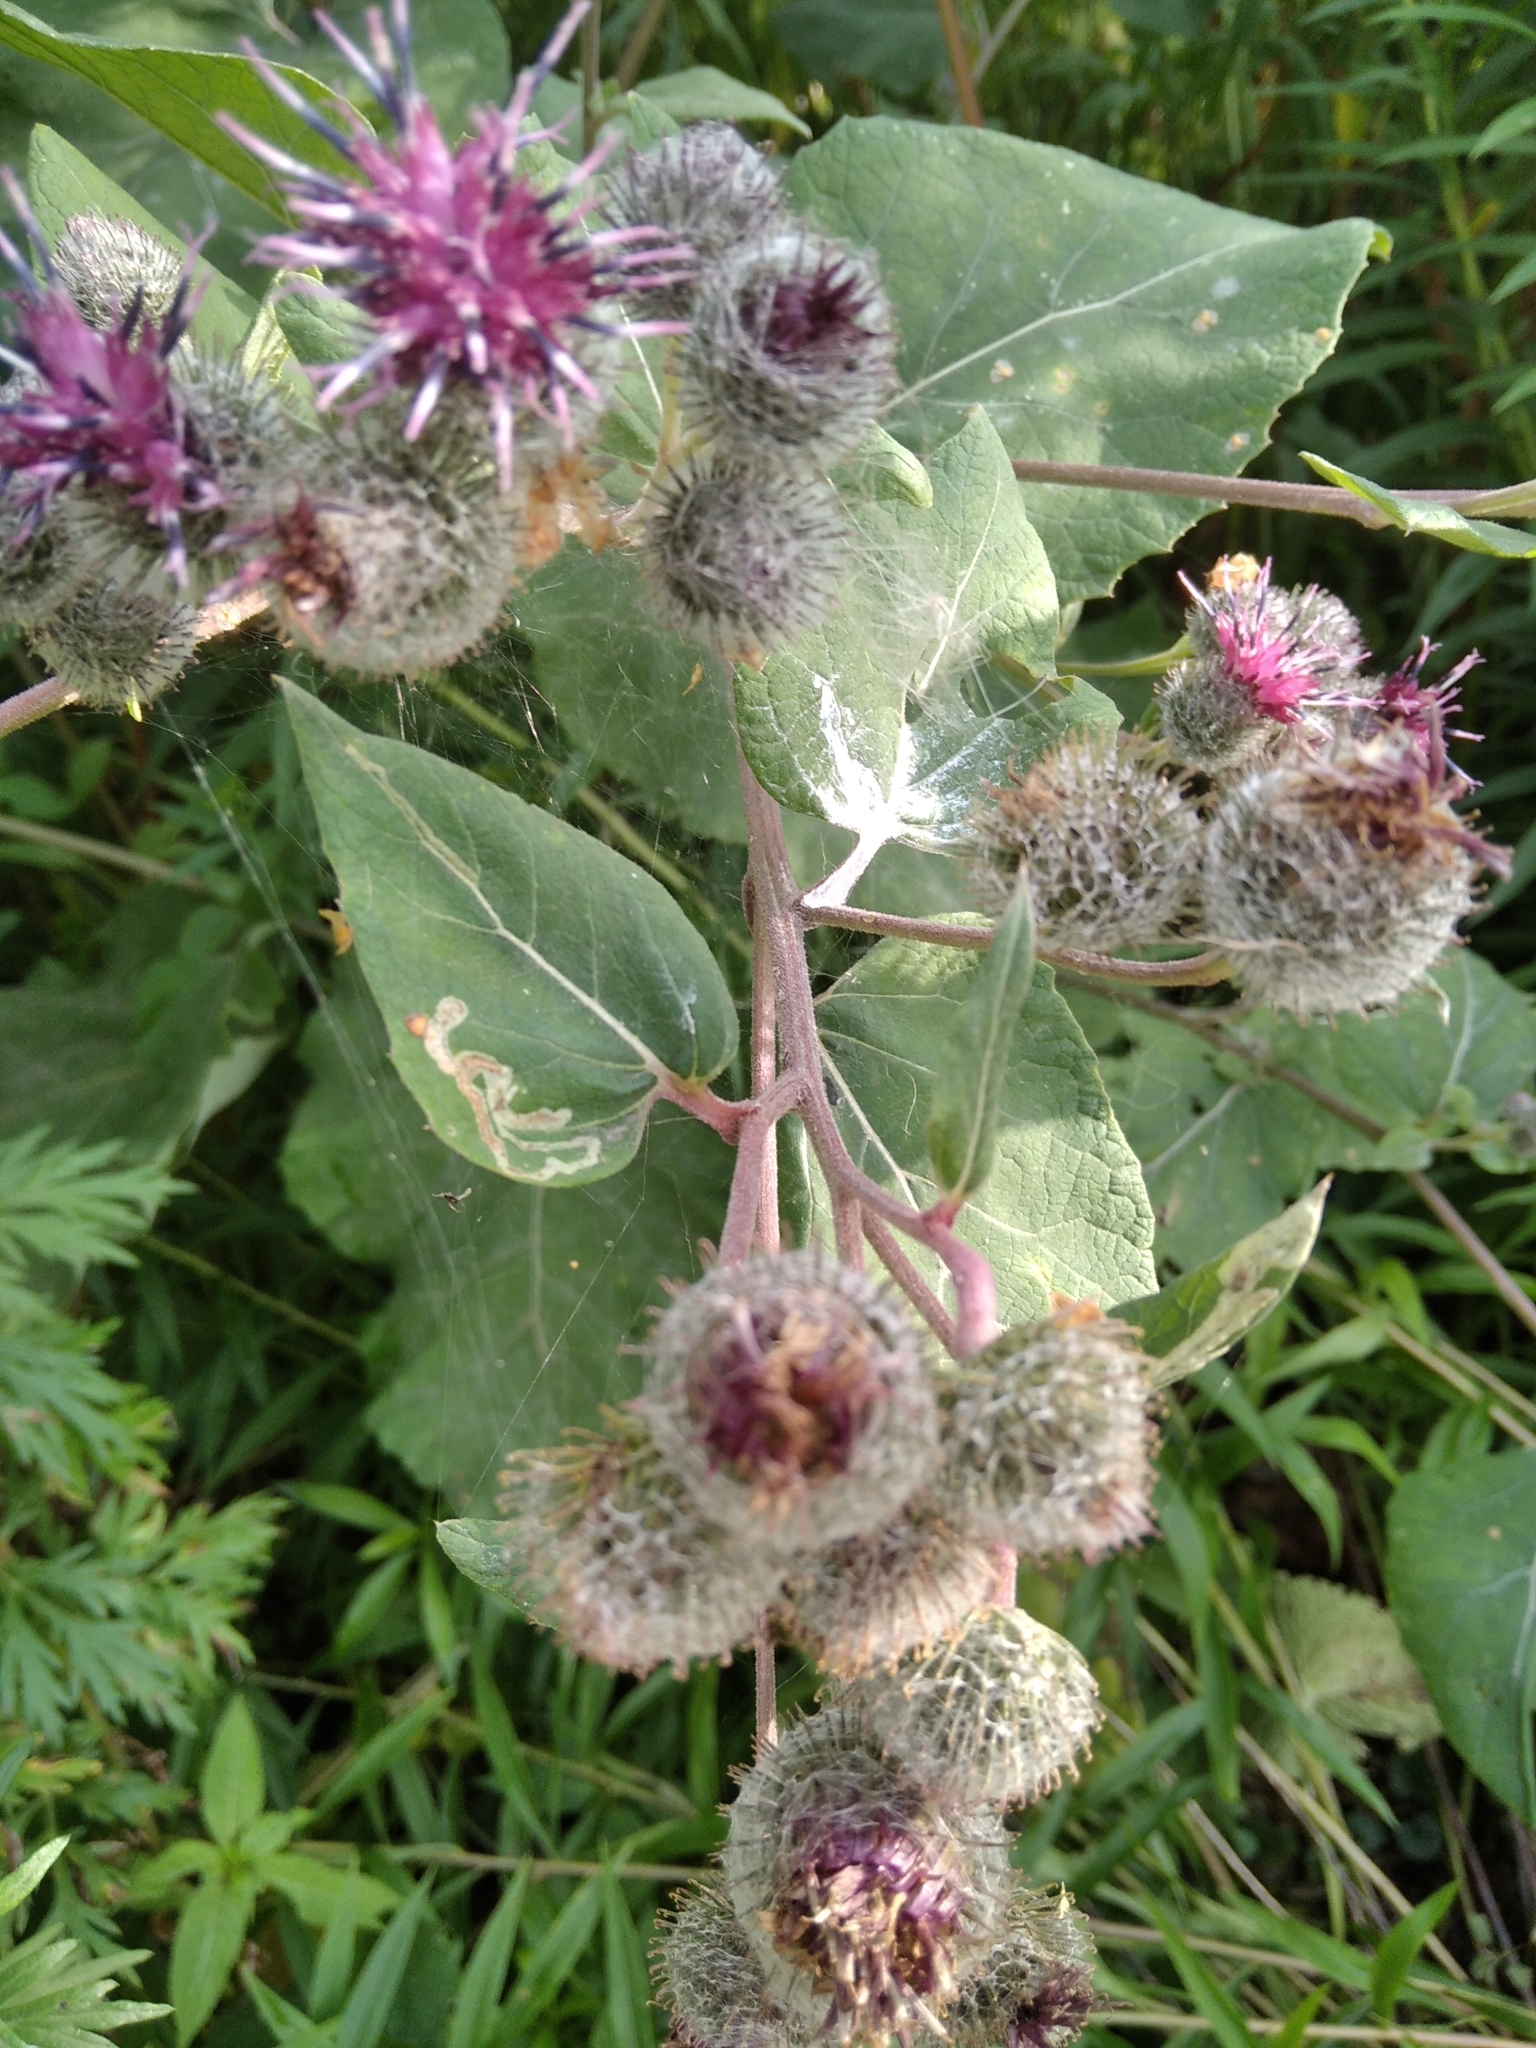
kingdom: Plantae
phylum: Tracheophyta
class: Magnoliopsida
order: Asterales
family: Asteraceae
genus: Arctium
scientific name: Arctium tomentosum
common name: Woolly burdock
